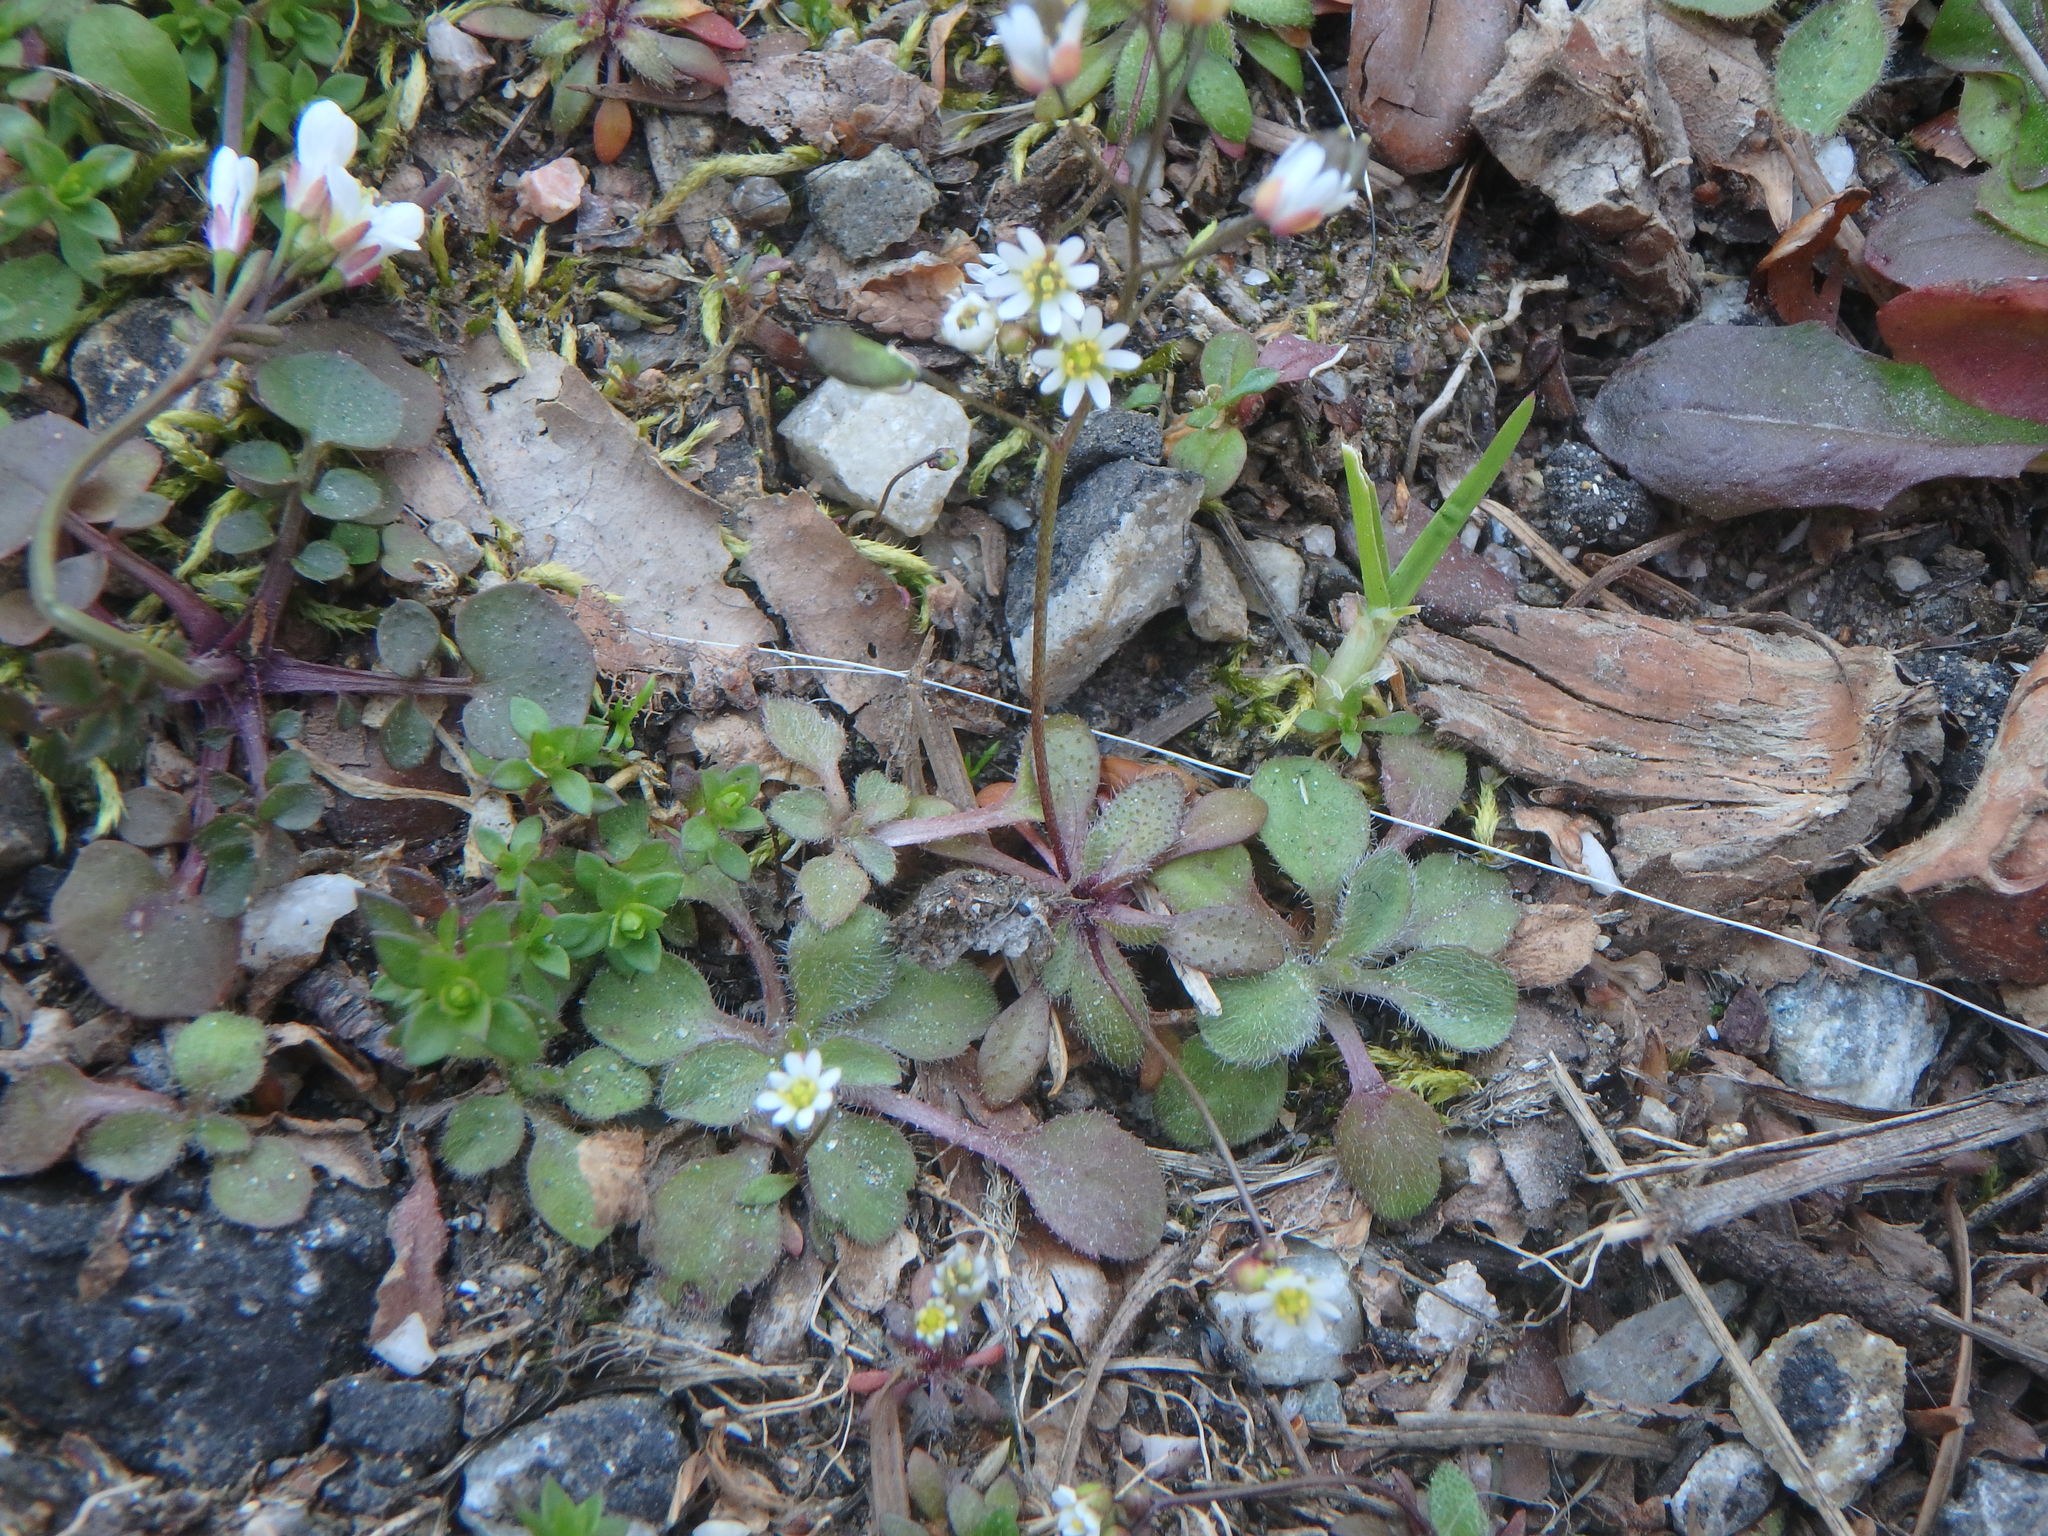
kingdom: Plantae
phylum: Tracheophyta
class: Magnoliopsida
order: Brassicales
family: Brassicaceae
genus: Draba
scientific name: Draba verna
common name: Spring draba
